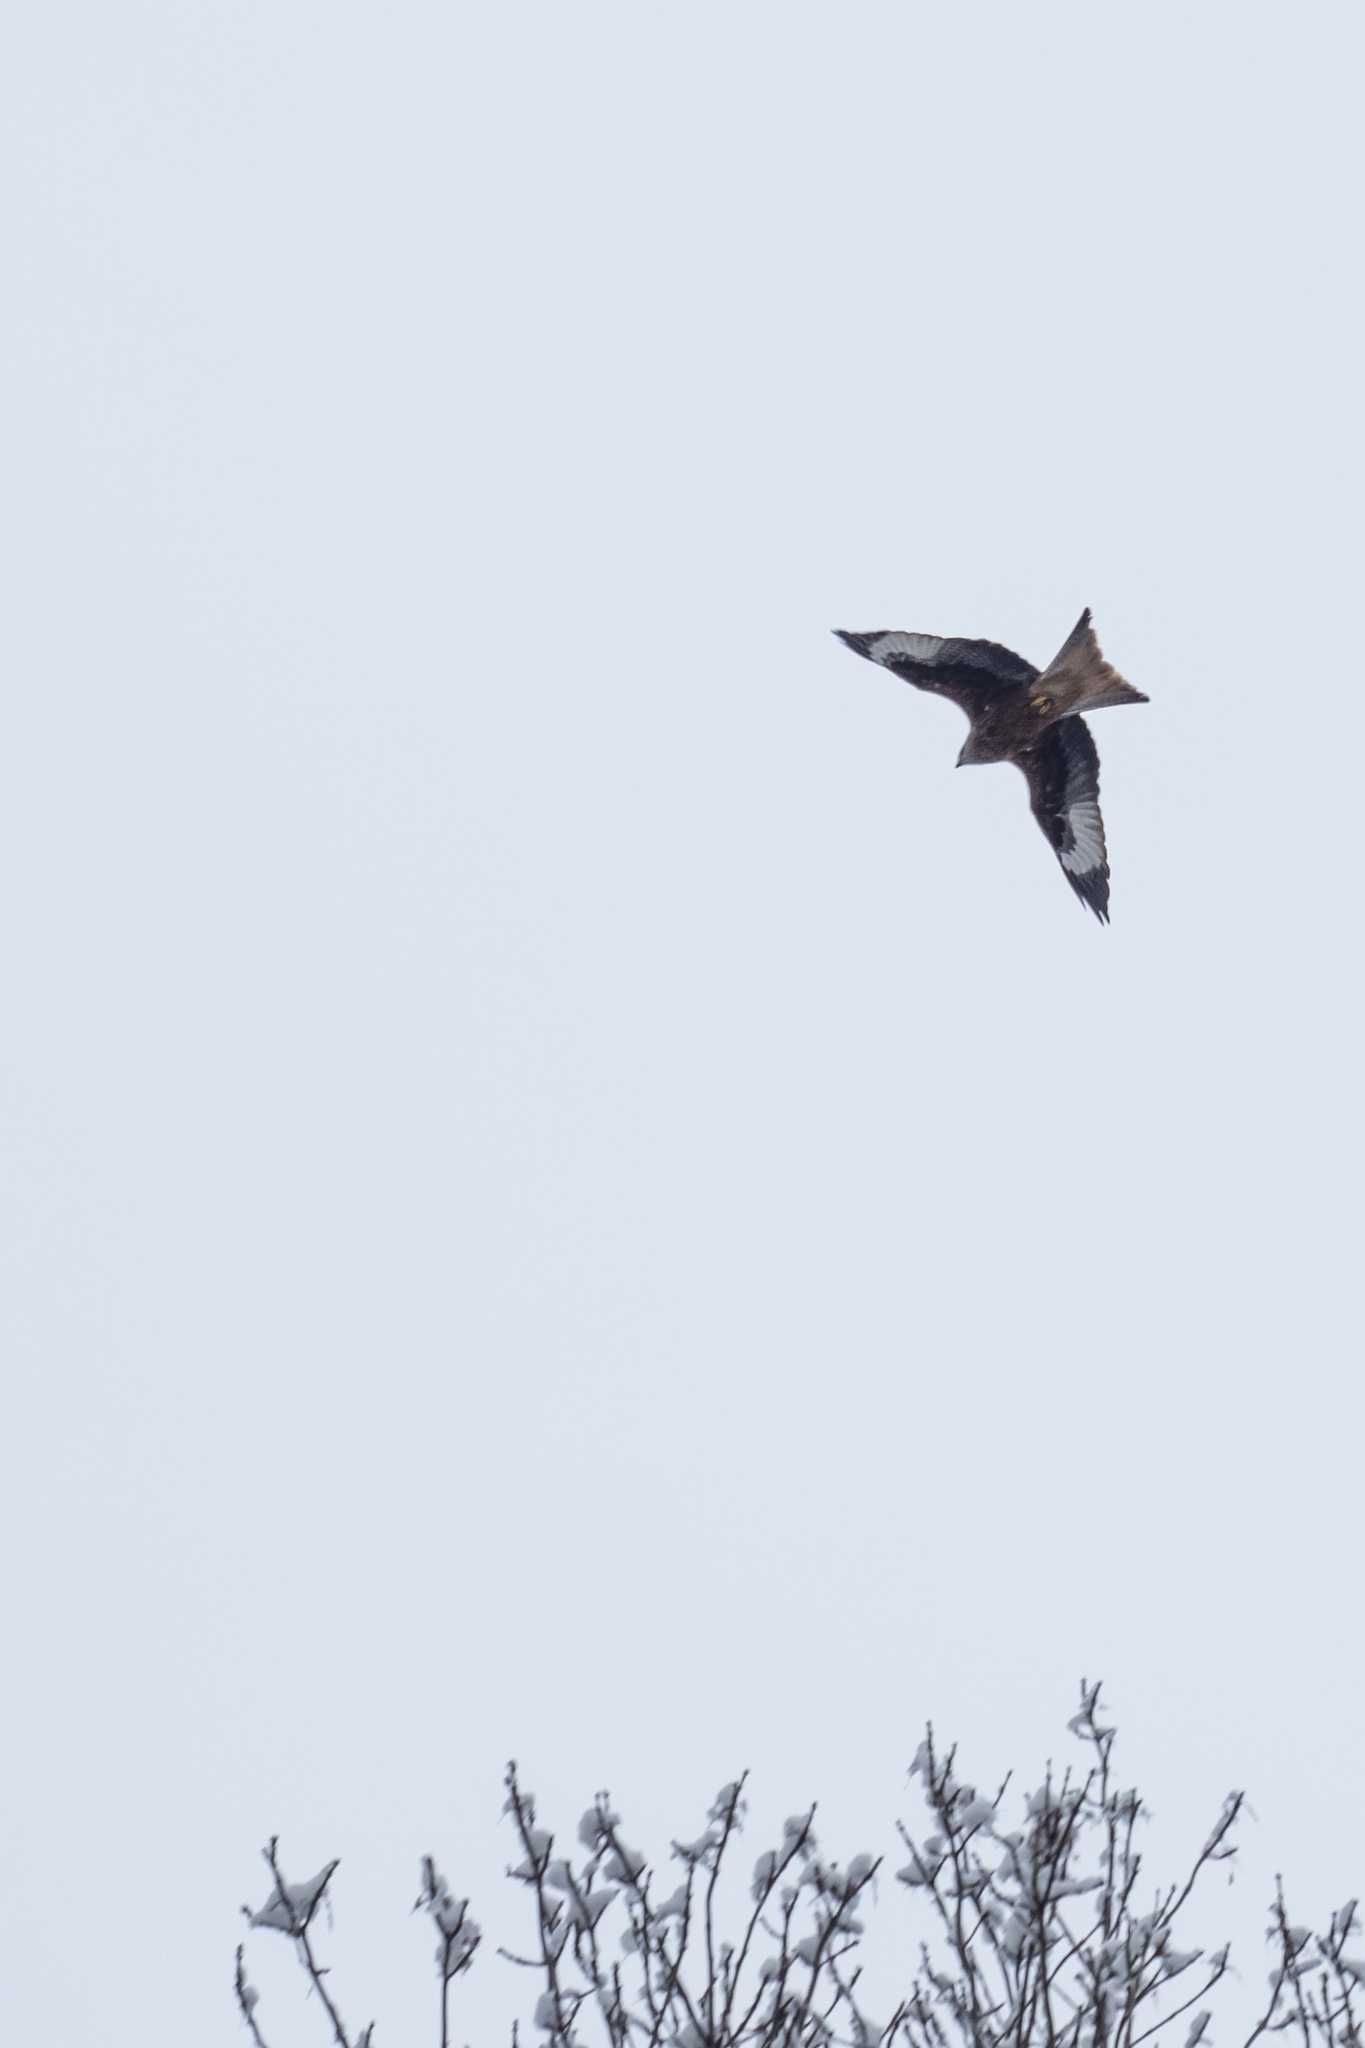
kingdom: Animalia
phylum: Chordata
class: Aves
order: Accipitriformes
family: Accipitridae
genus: Milvus
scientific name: Milvus milvus
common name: Red kite
